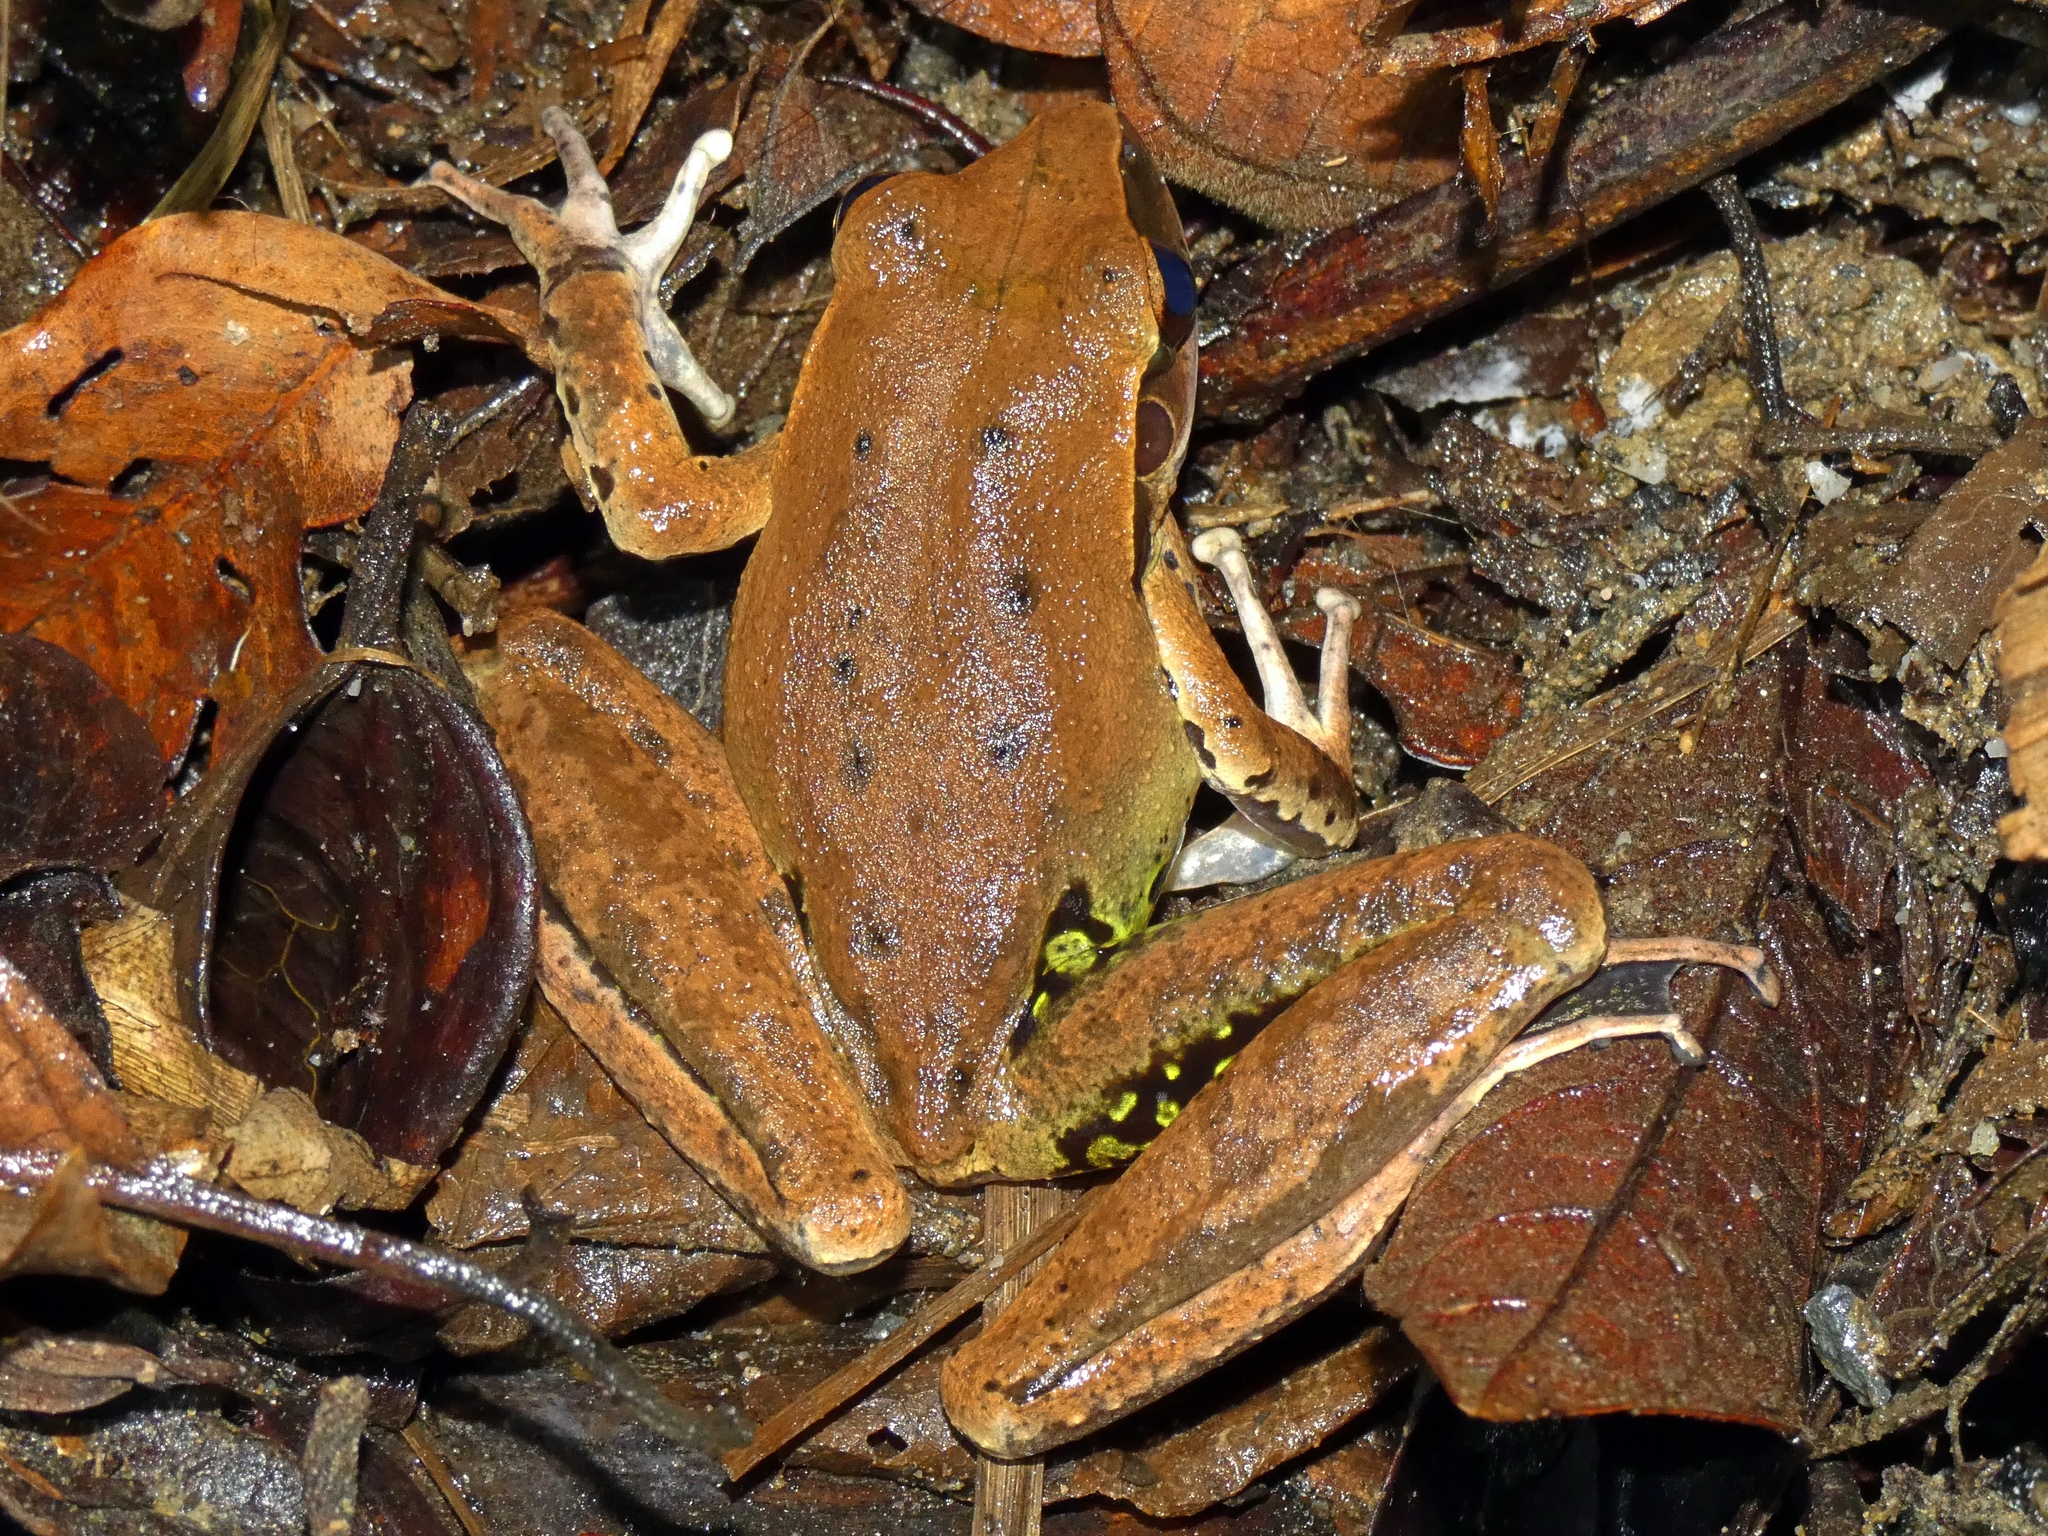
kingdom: Animalia
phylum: Chordata
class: Amphibia
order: Anura
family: Pelodryadidae
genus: Ranoidea
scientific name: Ranoidea jungguy
